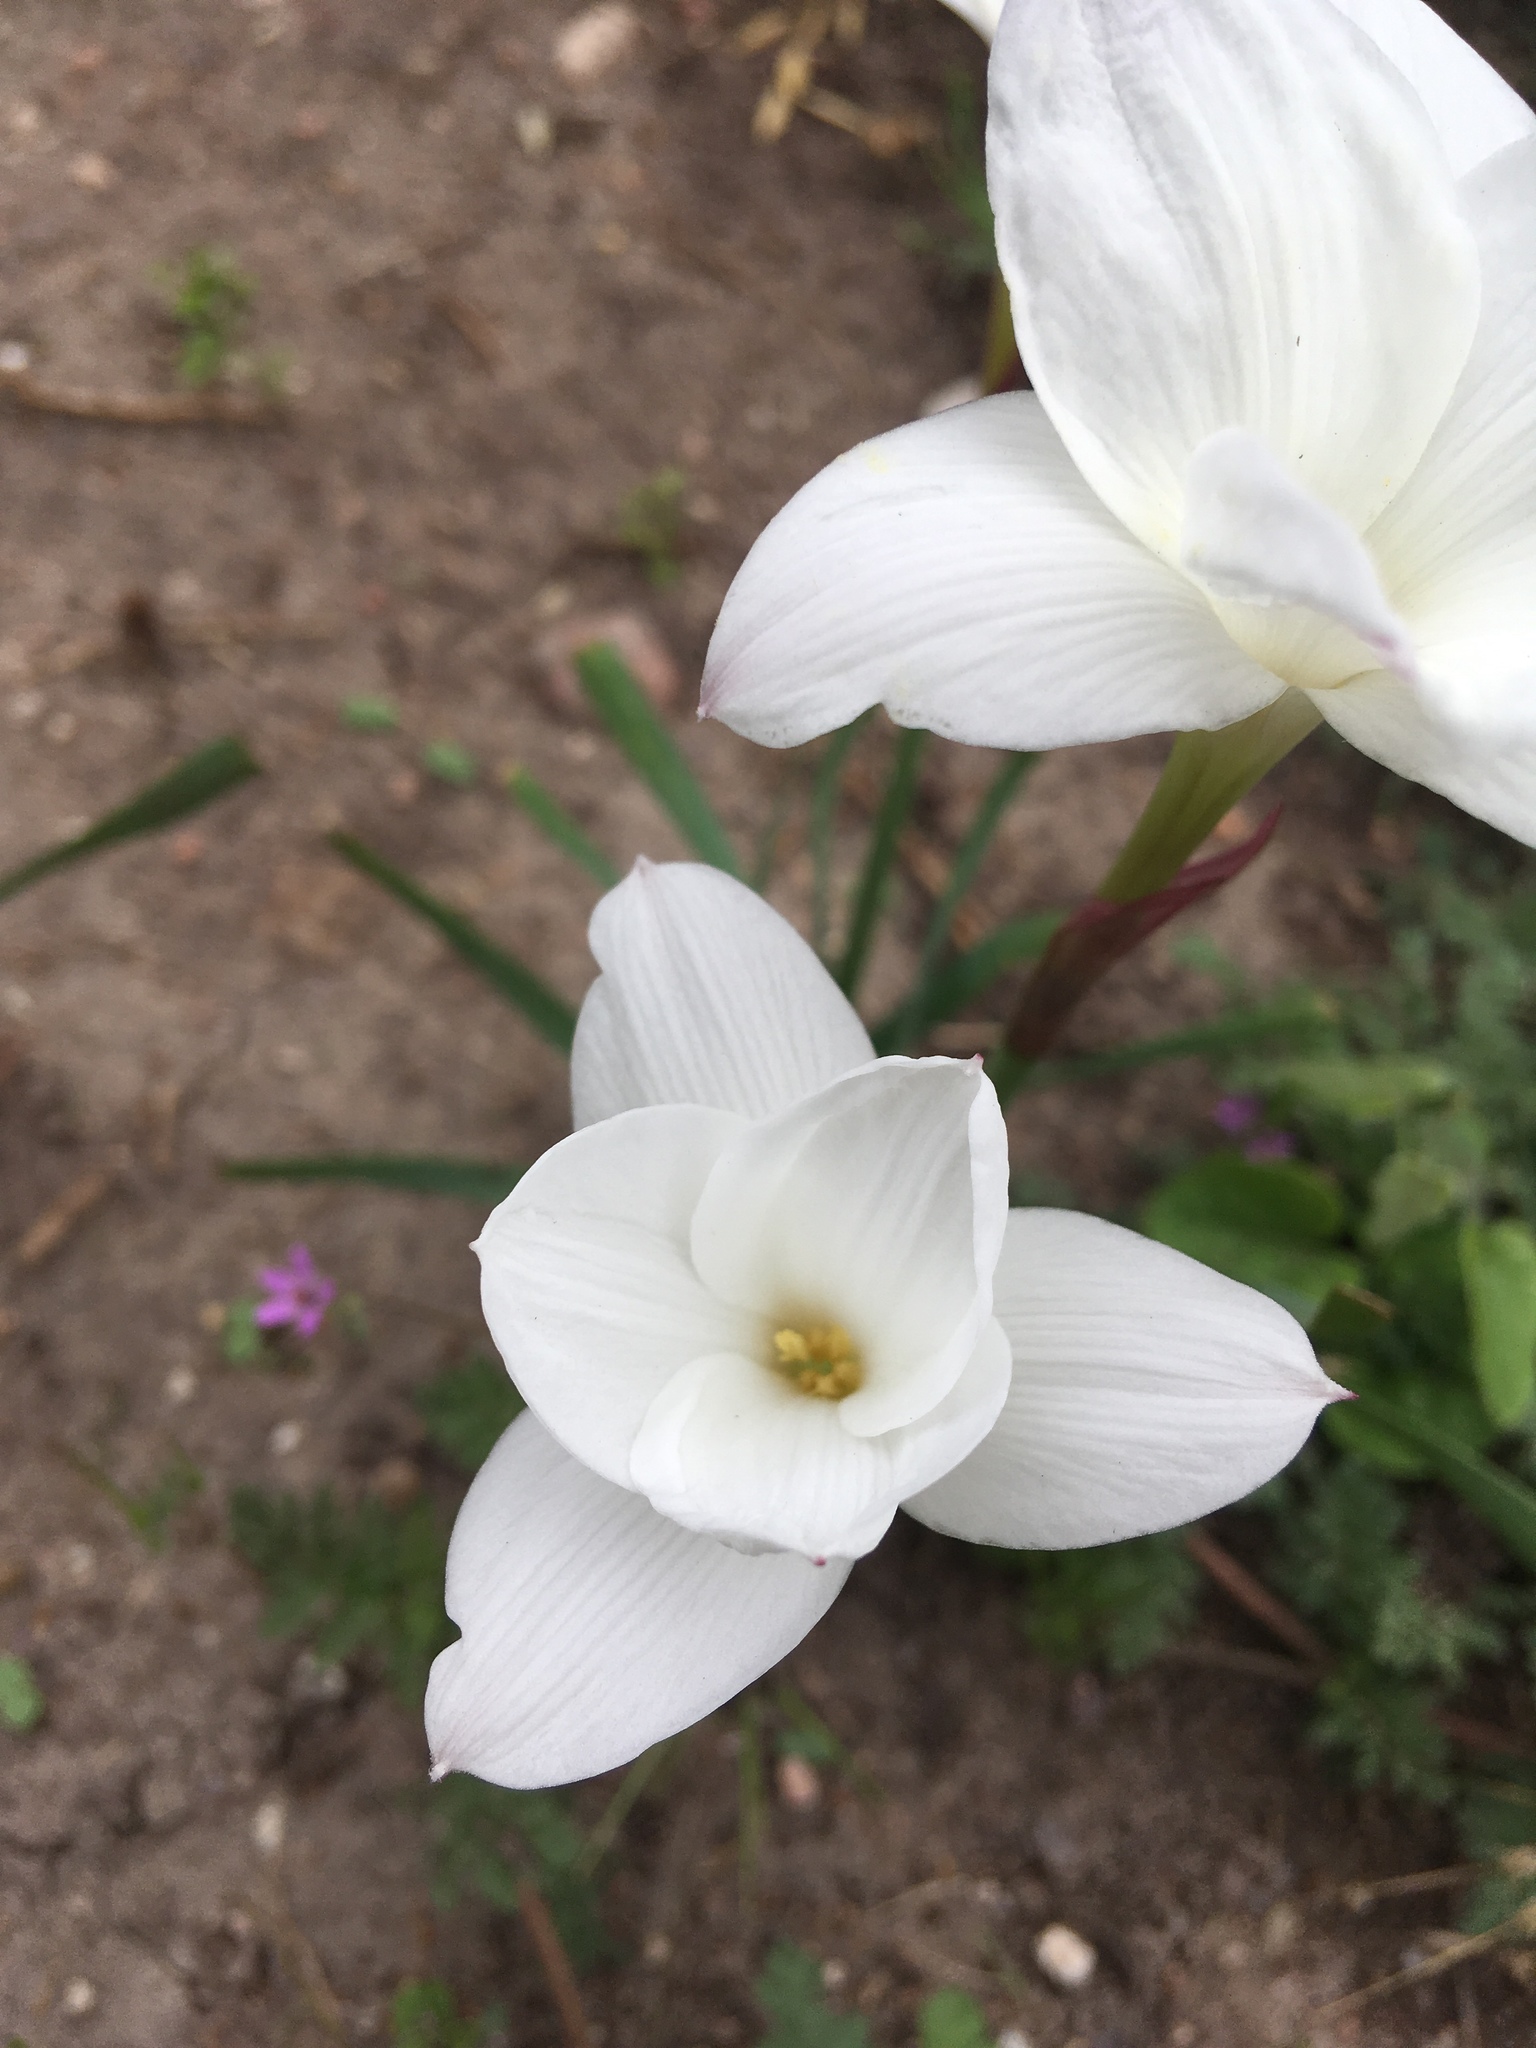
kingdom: Plantae
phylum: Tracheophyta
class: Liliopsida
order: Asparagales
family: Amaryllidaceae
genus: Zephyranthes
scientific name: Zephyranthes drummondii
